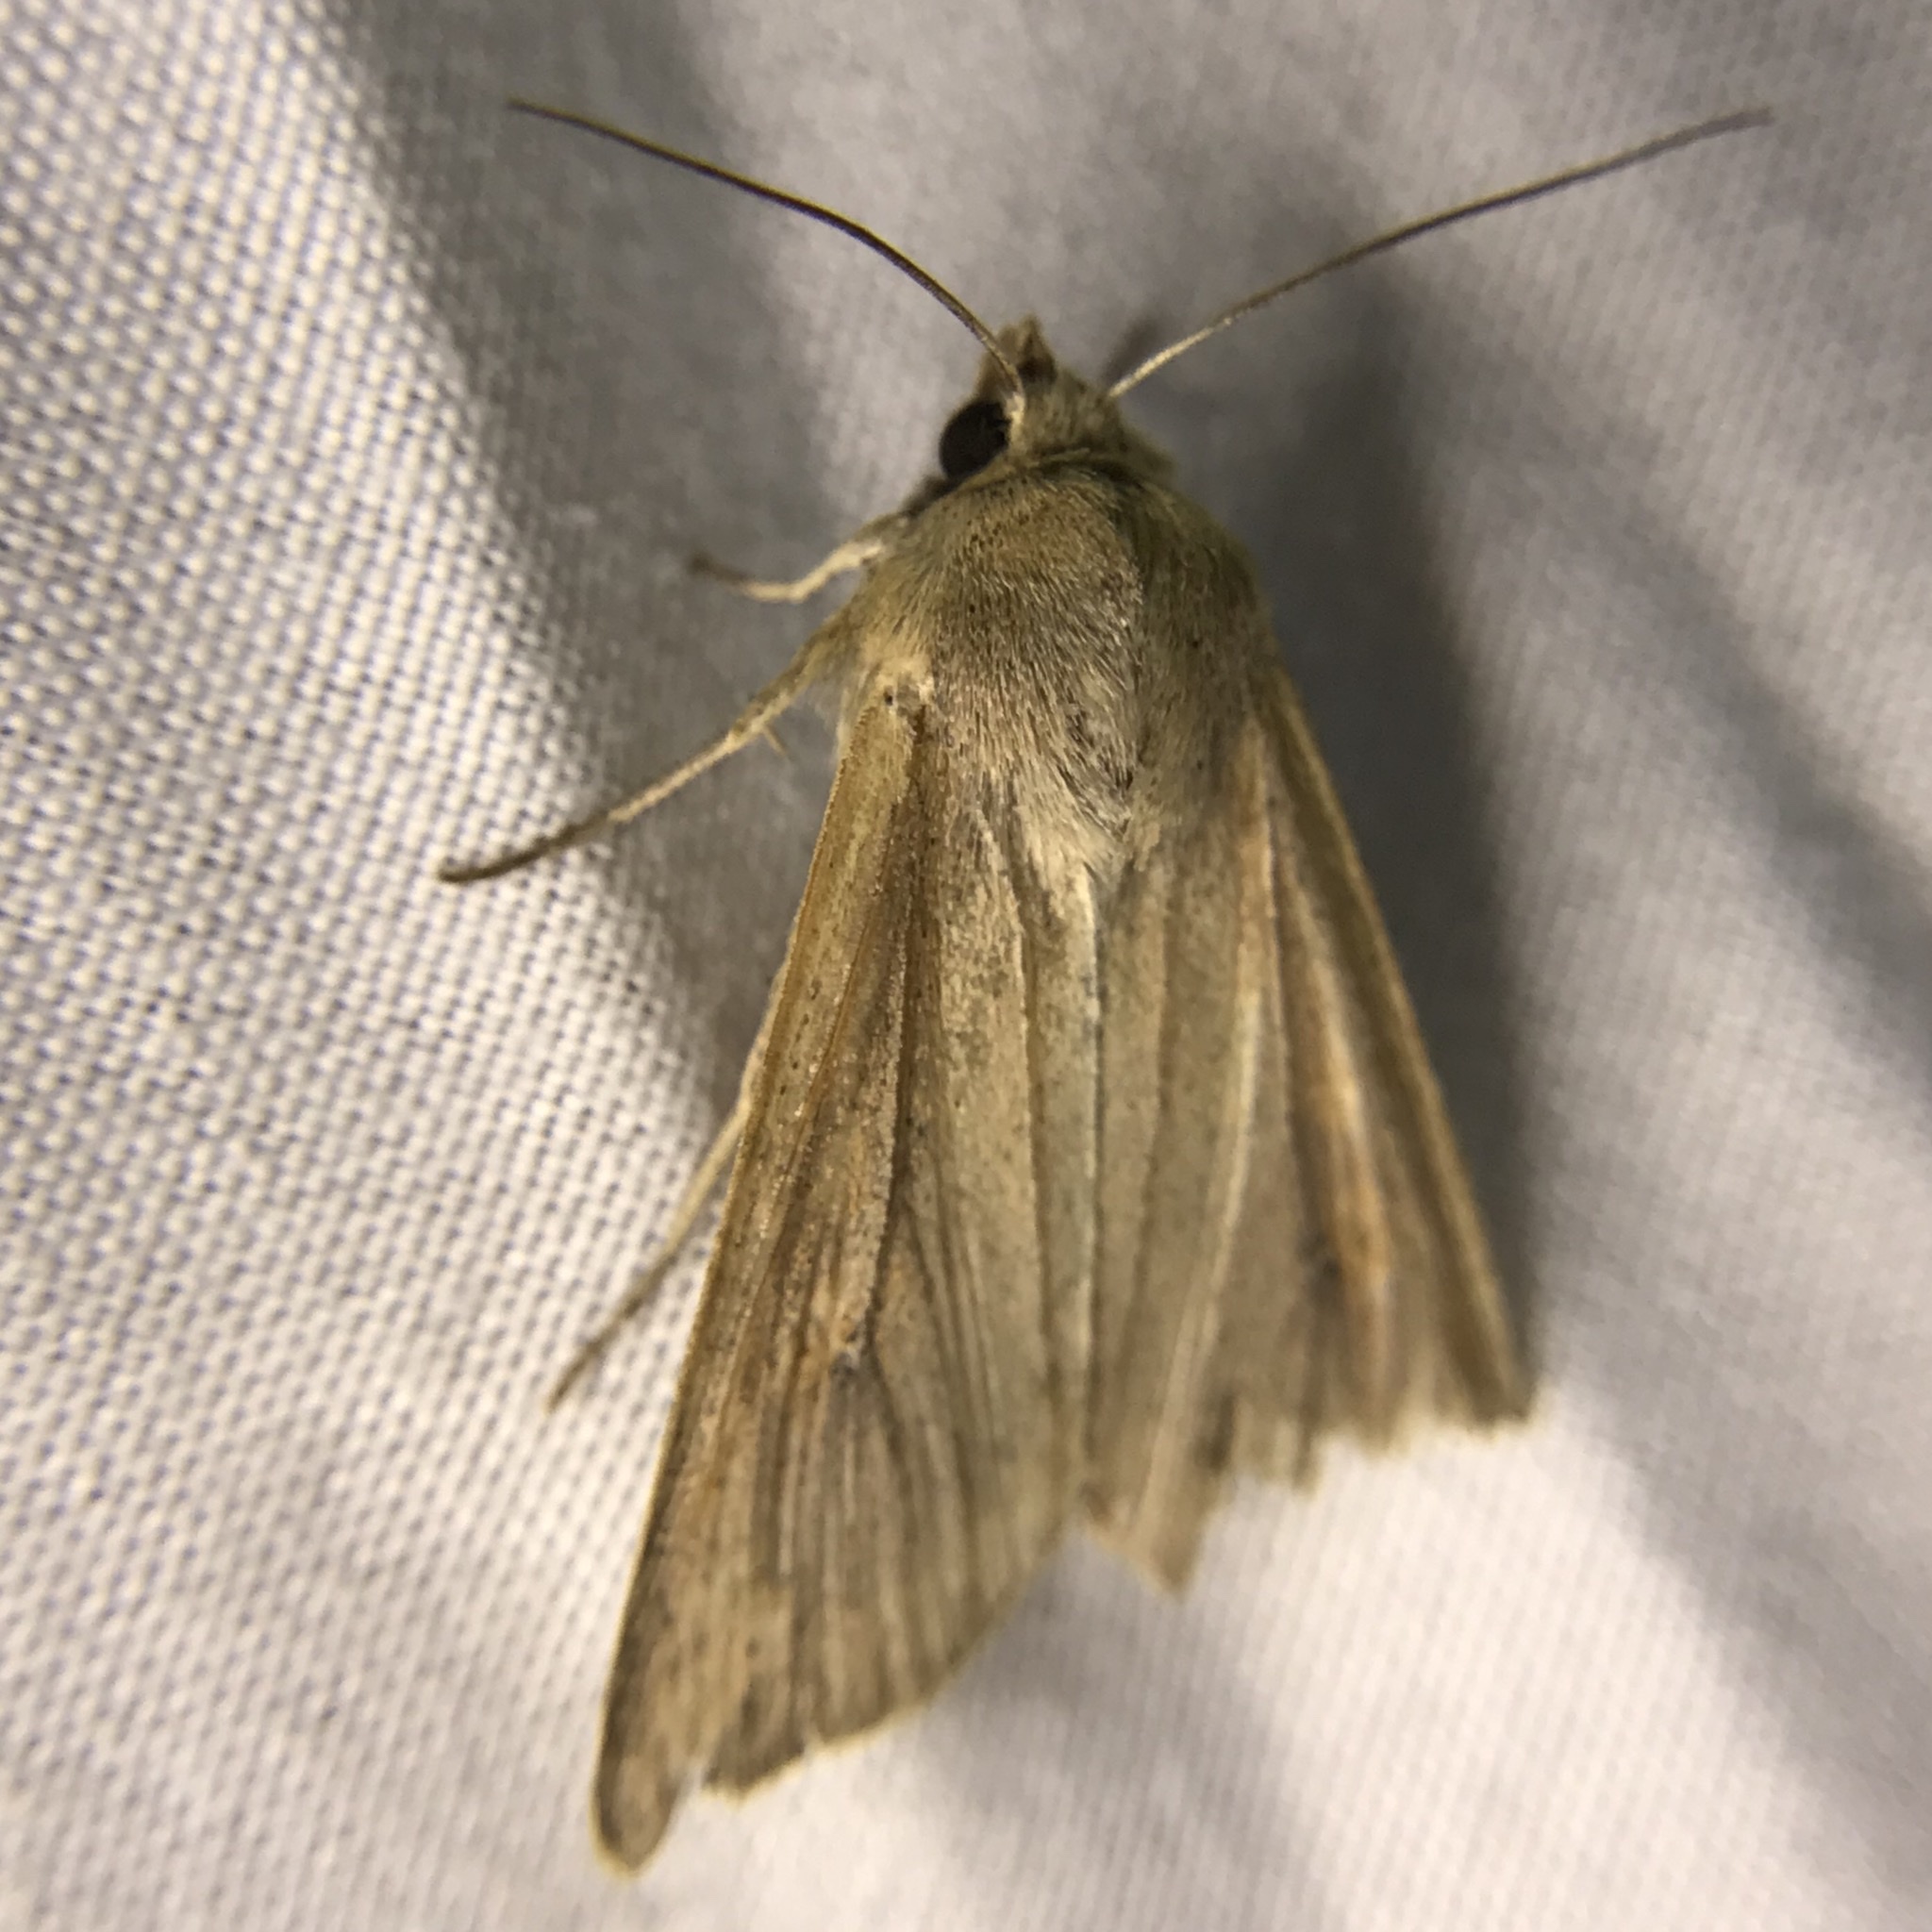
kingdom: Animalia
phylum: Arthropoda
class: Insecta
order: Lepidoptera
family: Noctuidae
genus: Mythimna
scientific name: Mythimna unipuncta
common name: White-speck
